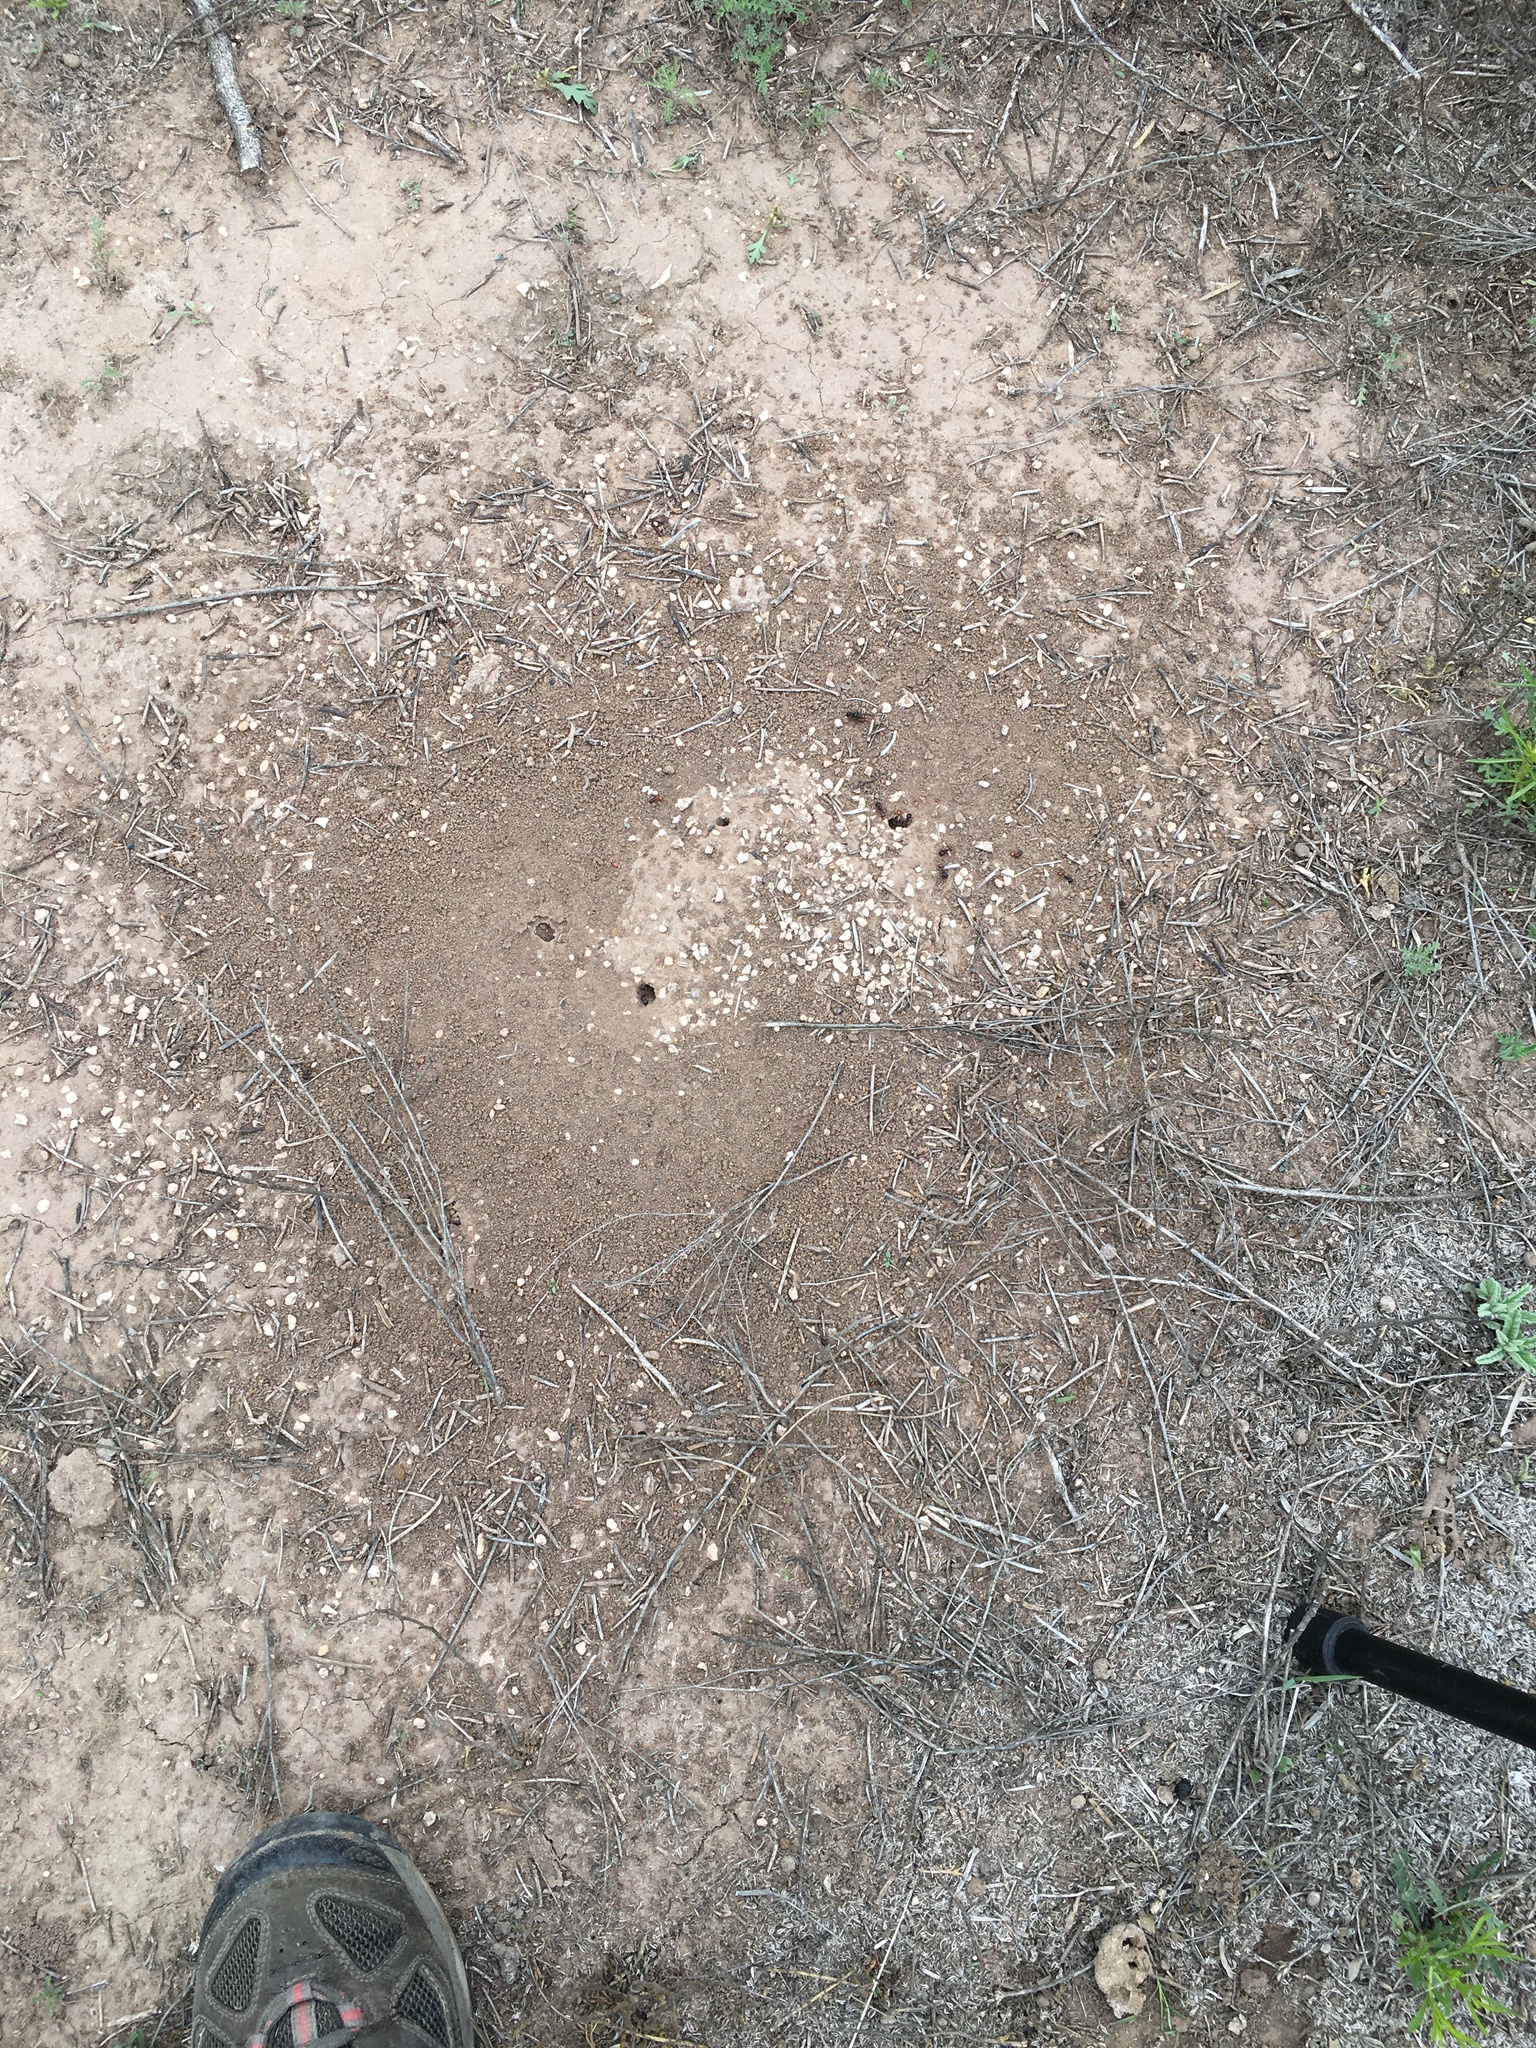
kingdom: Animalia
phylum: Arthropoda
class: Insecta
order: Hymenoptera
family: Formicidae
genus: Pogonomyrmex
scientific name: Pogonomyrmex rugosus
